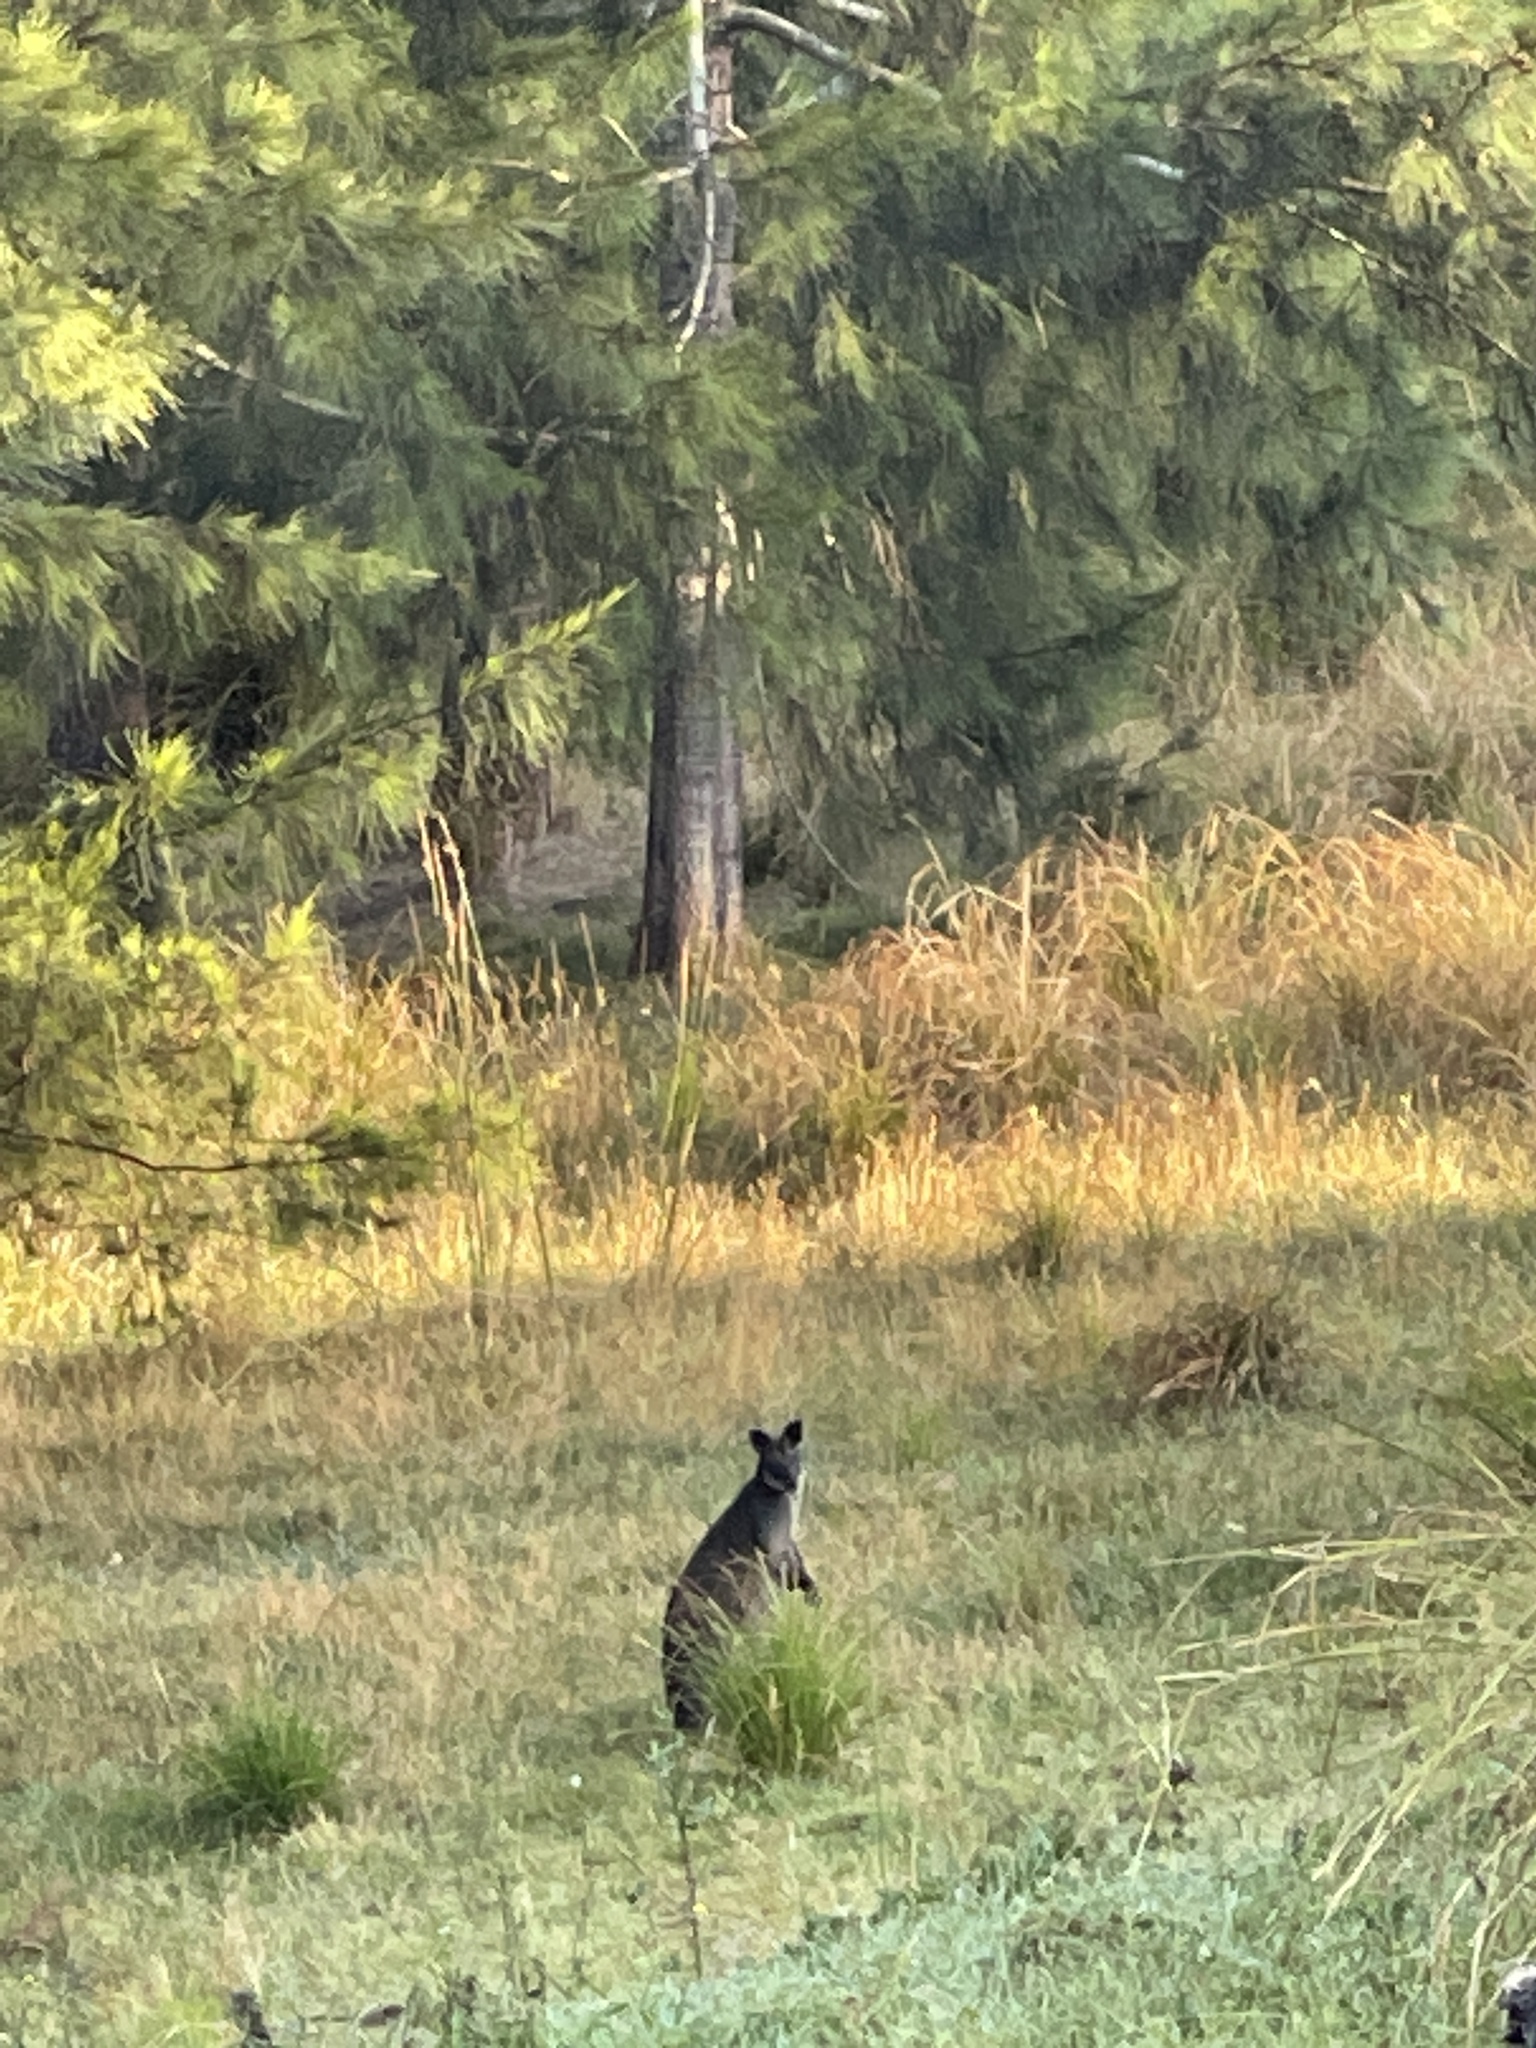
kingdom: Animalia
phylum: Chordata
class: Mammalia
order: Diprotodontia
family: Macropodidae
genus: Wallabia
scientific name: Wallabia bicolor
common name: Swamp wallaby
